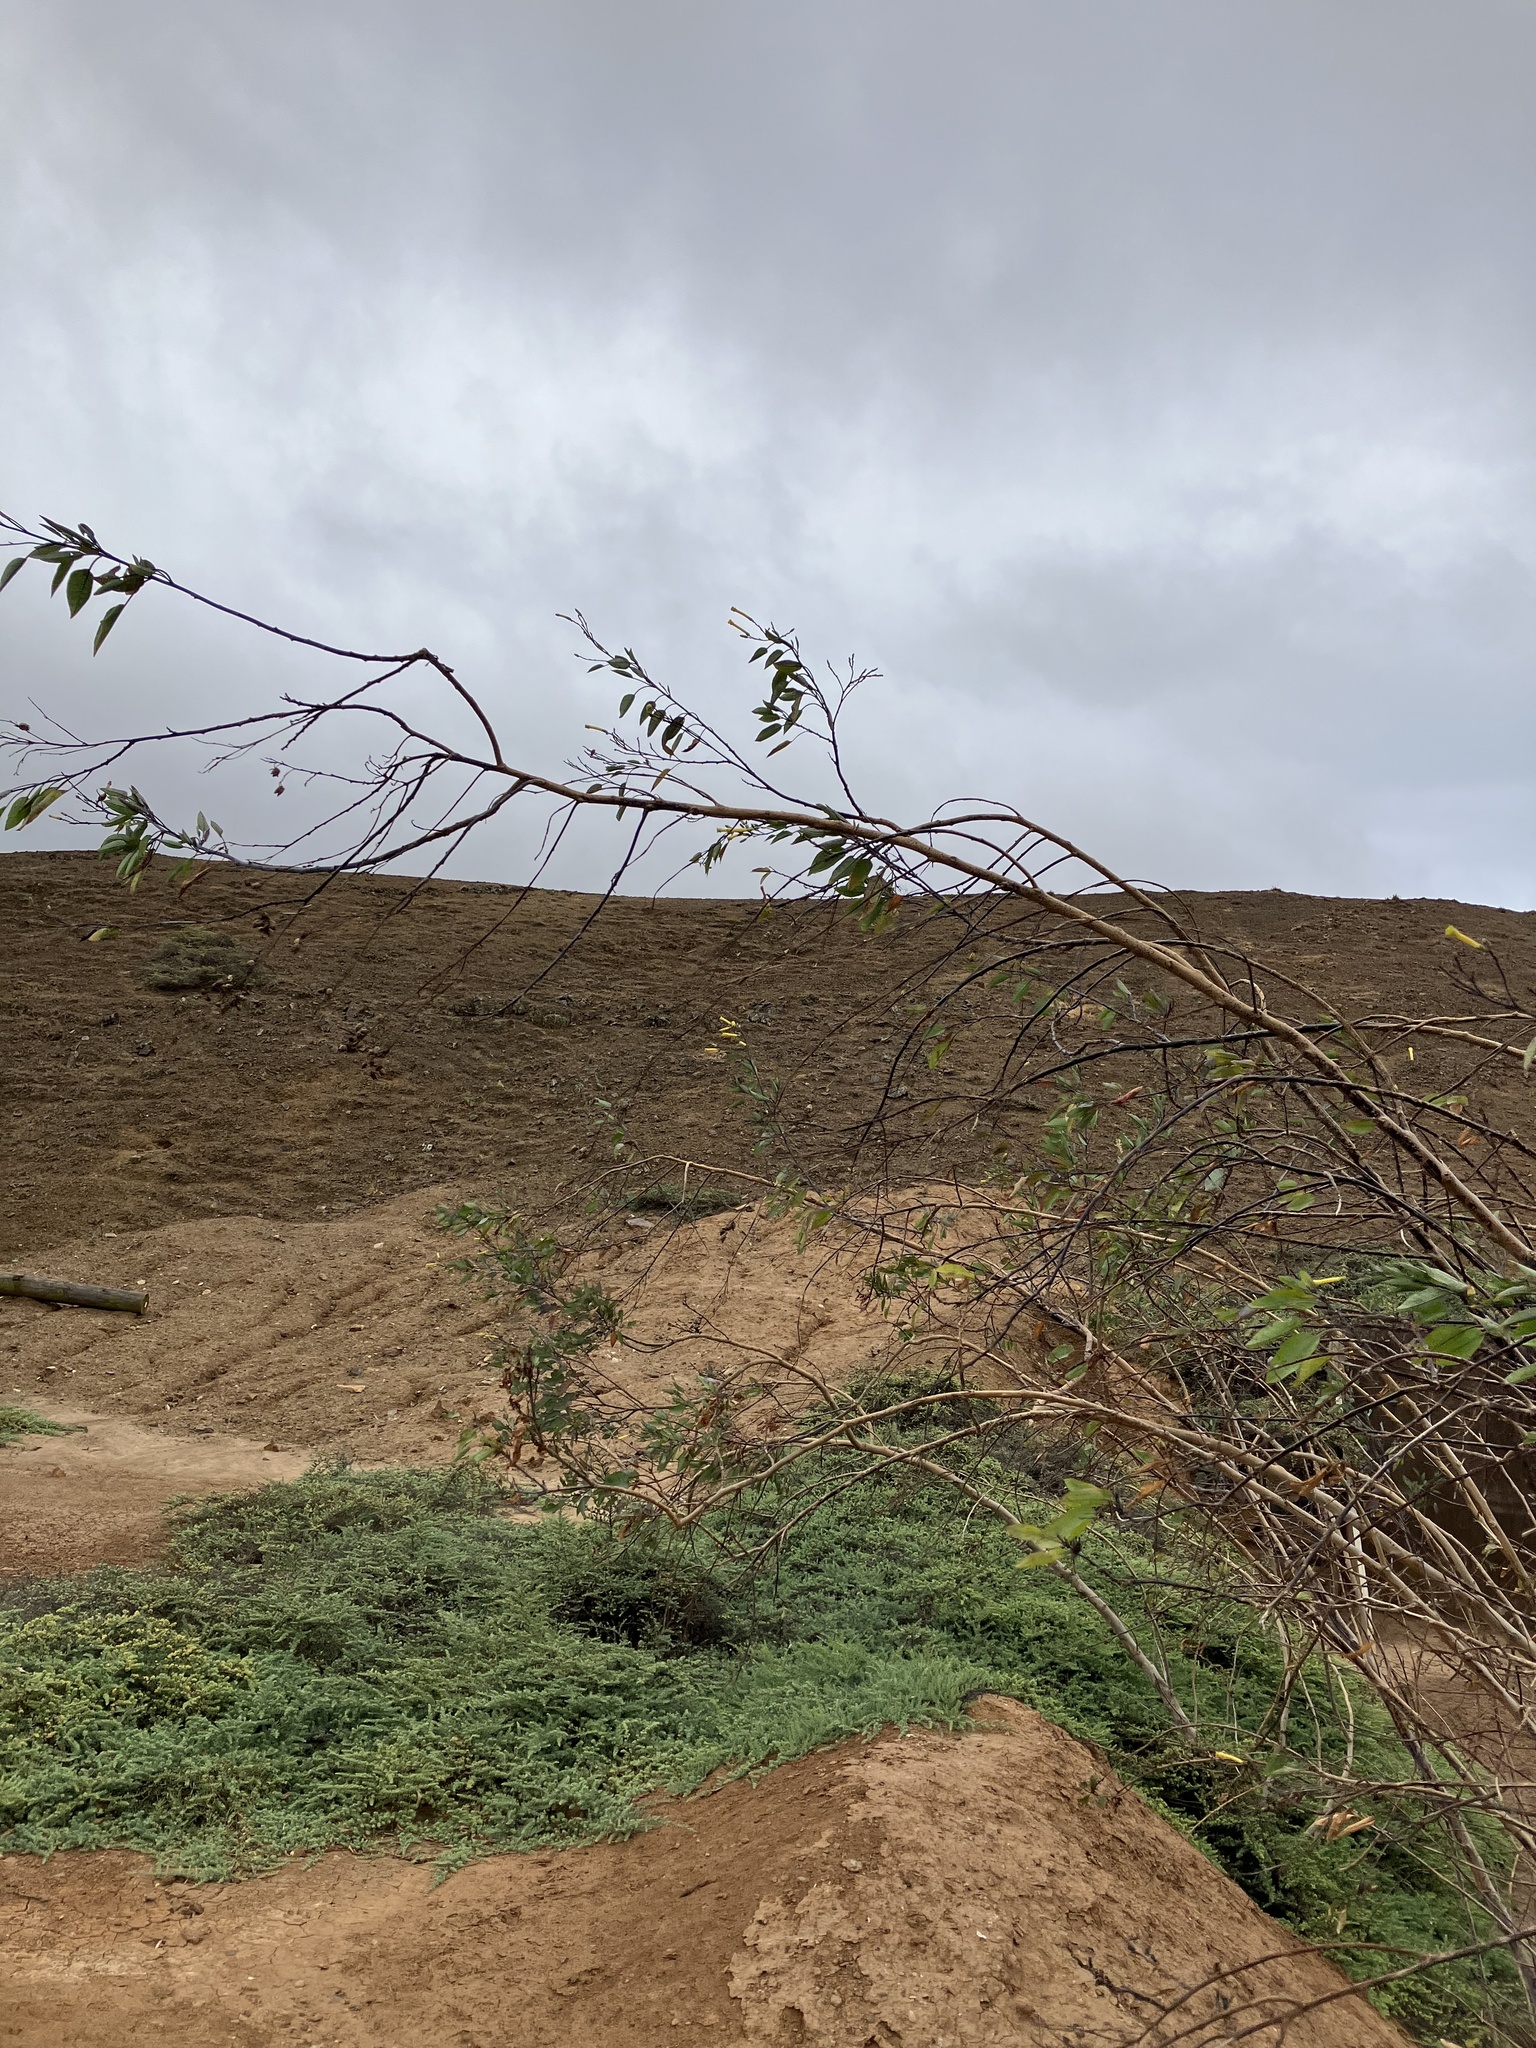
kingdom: Plantae
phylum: Tracheophyta
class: Magnoliopsida
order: Solanales
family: Solanaceae
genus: Nicotiana
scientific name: Nicotiana glauca
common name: Tree tobacco
